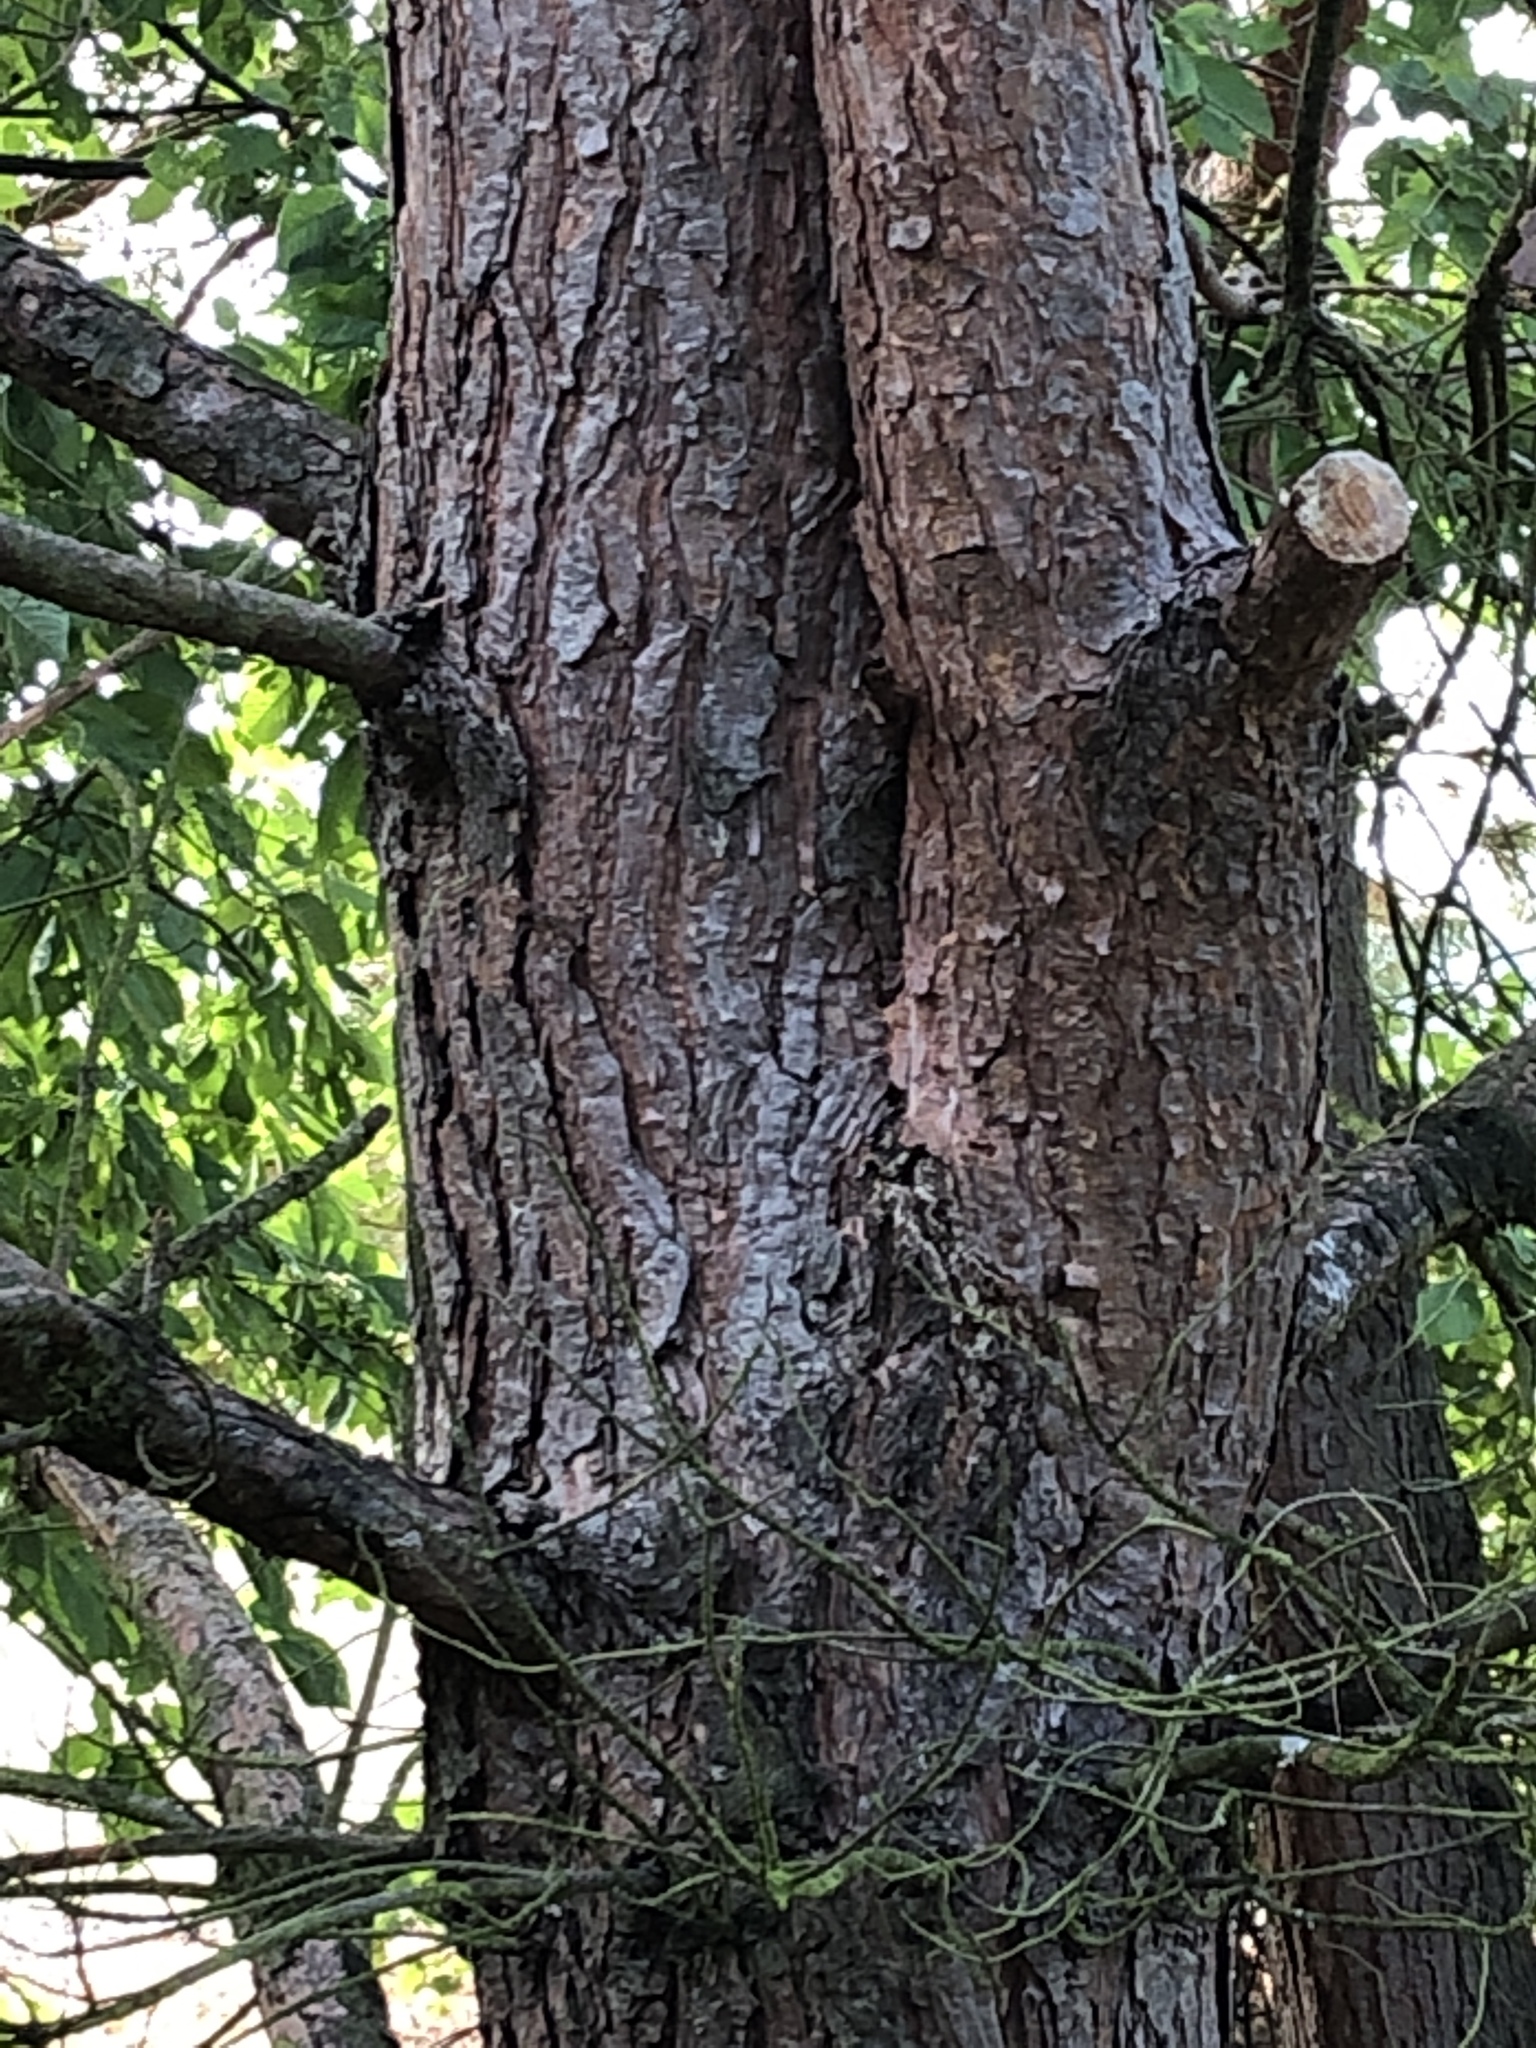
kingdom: Plantae
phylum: Tracheophyta
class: Pinopsida
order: Pinales
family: Pinaceae
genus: Pinus
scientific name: Pinus sylvestris
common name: Scots pine
